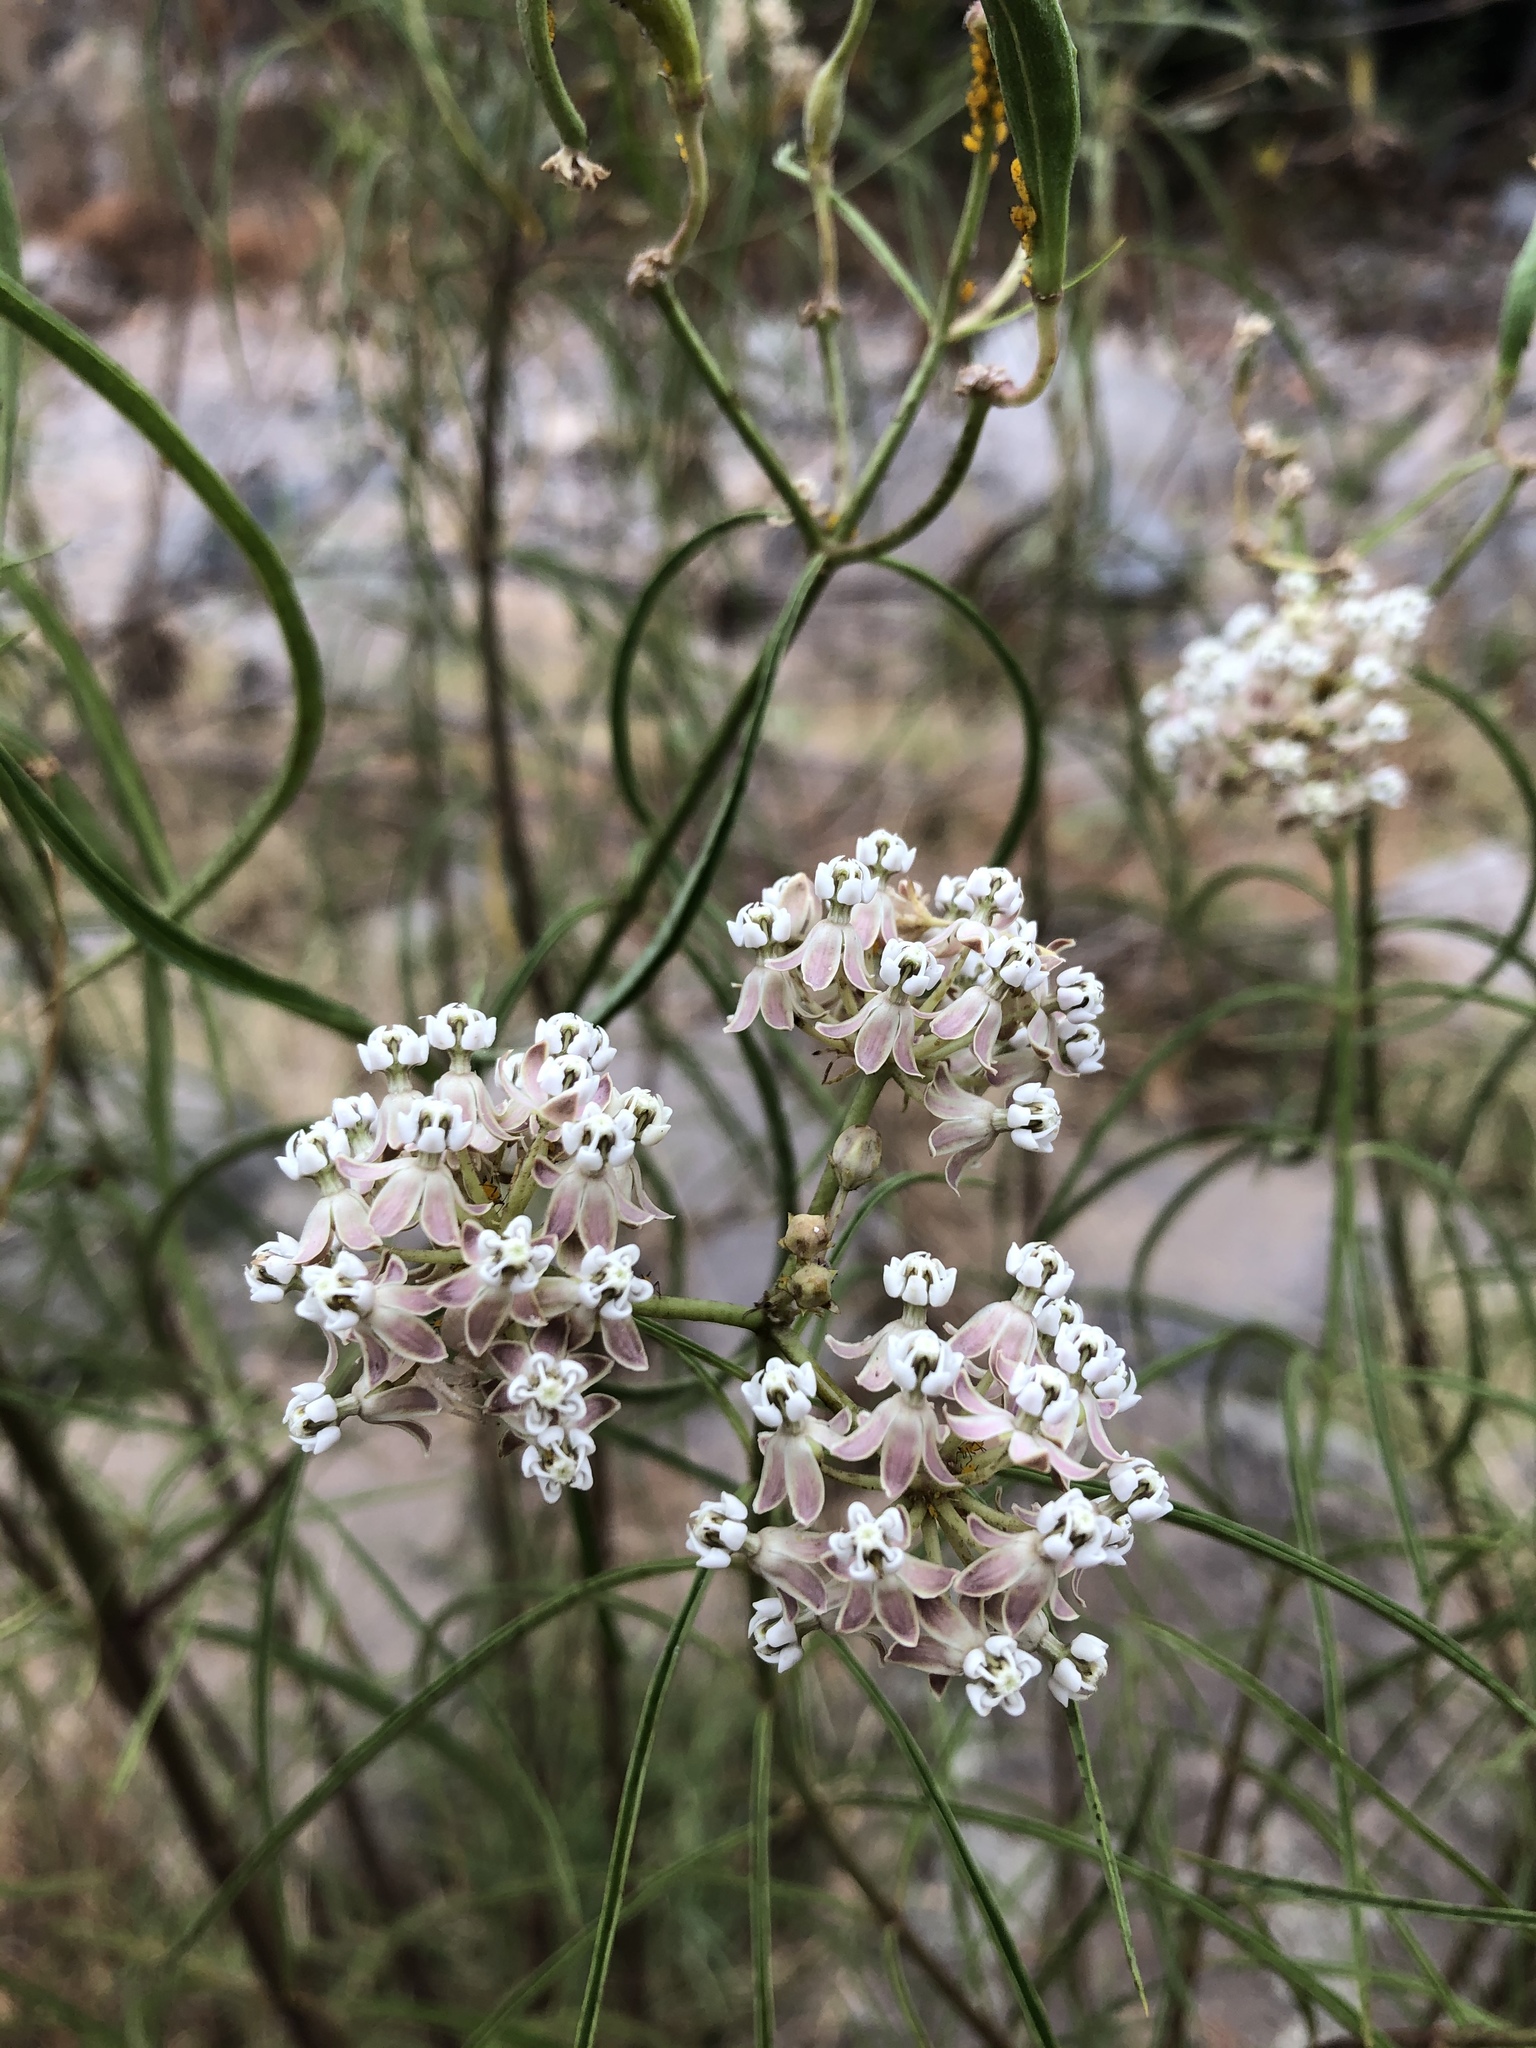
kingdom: Plantae
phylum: Tracheophyta
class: Magnoliopsida
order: Gentianales
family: Apocynaceae
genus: Asclepias
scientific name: Asclepias fascicularis
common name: Mexican milkweed
